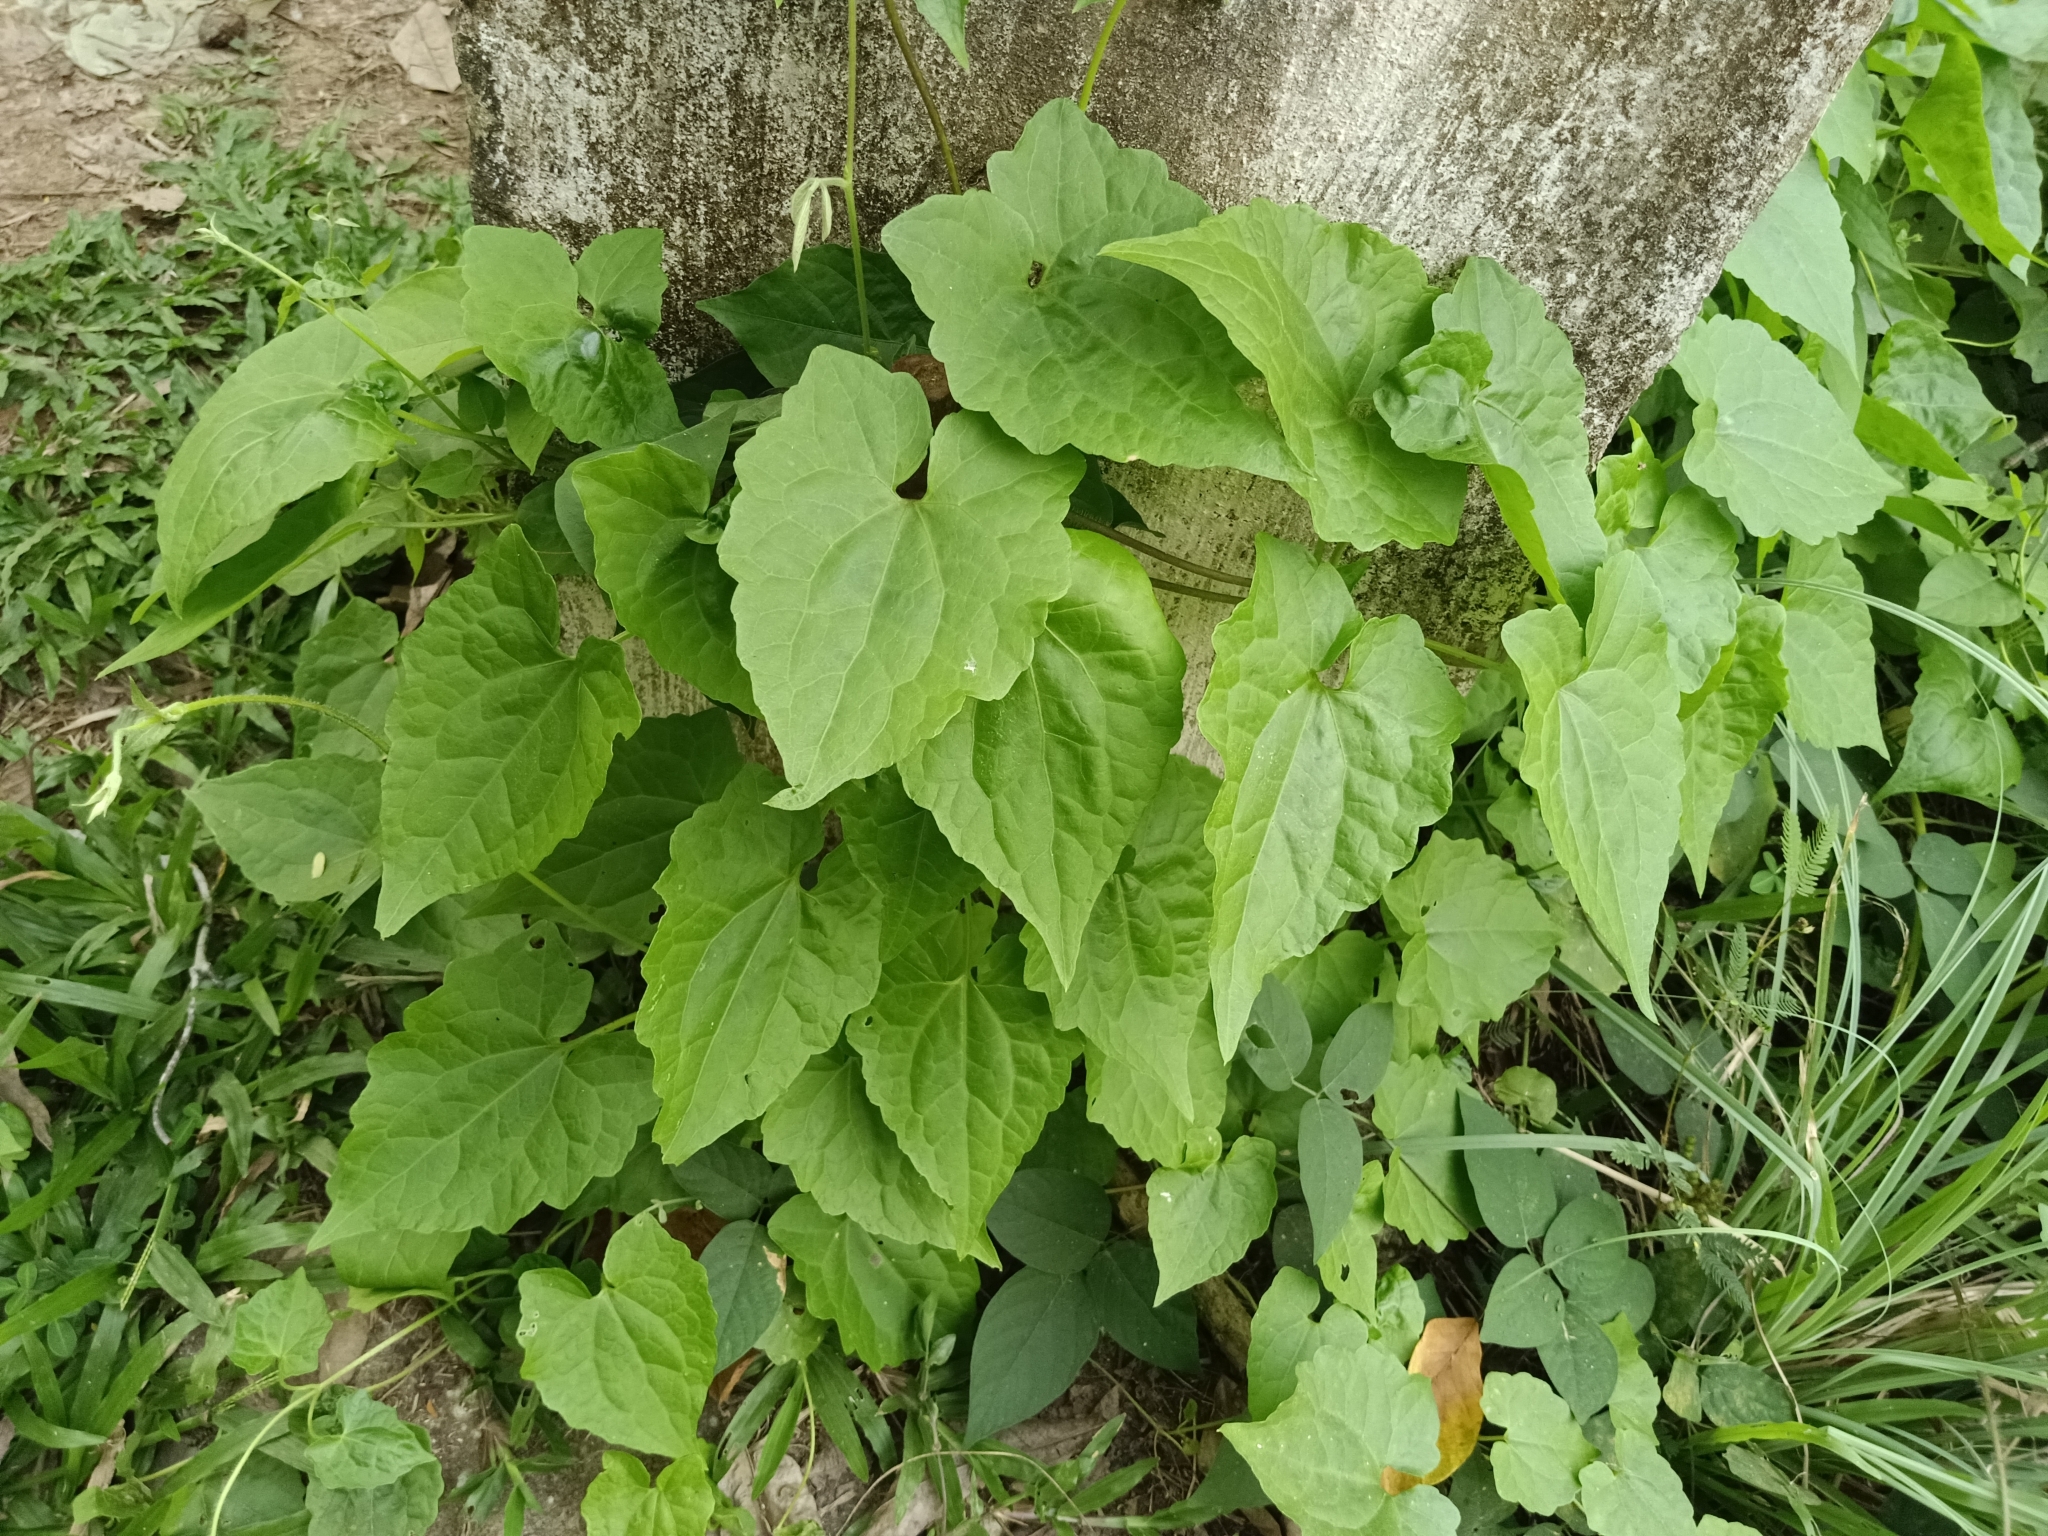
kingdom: Plantae
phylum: Tracheophyta
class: Magnoliopsida
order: Asterales
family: Asteraceae
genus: Mikania
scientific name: Mikania micrantha
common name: Mile-a-minute
